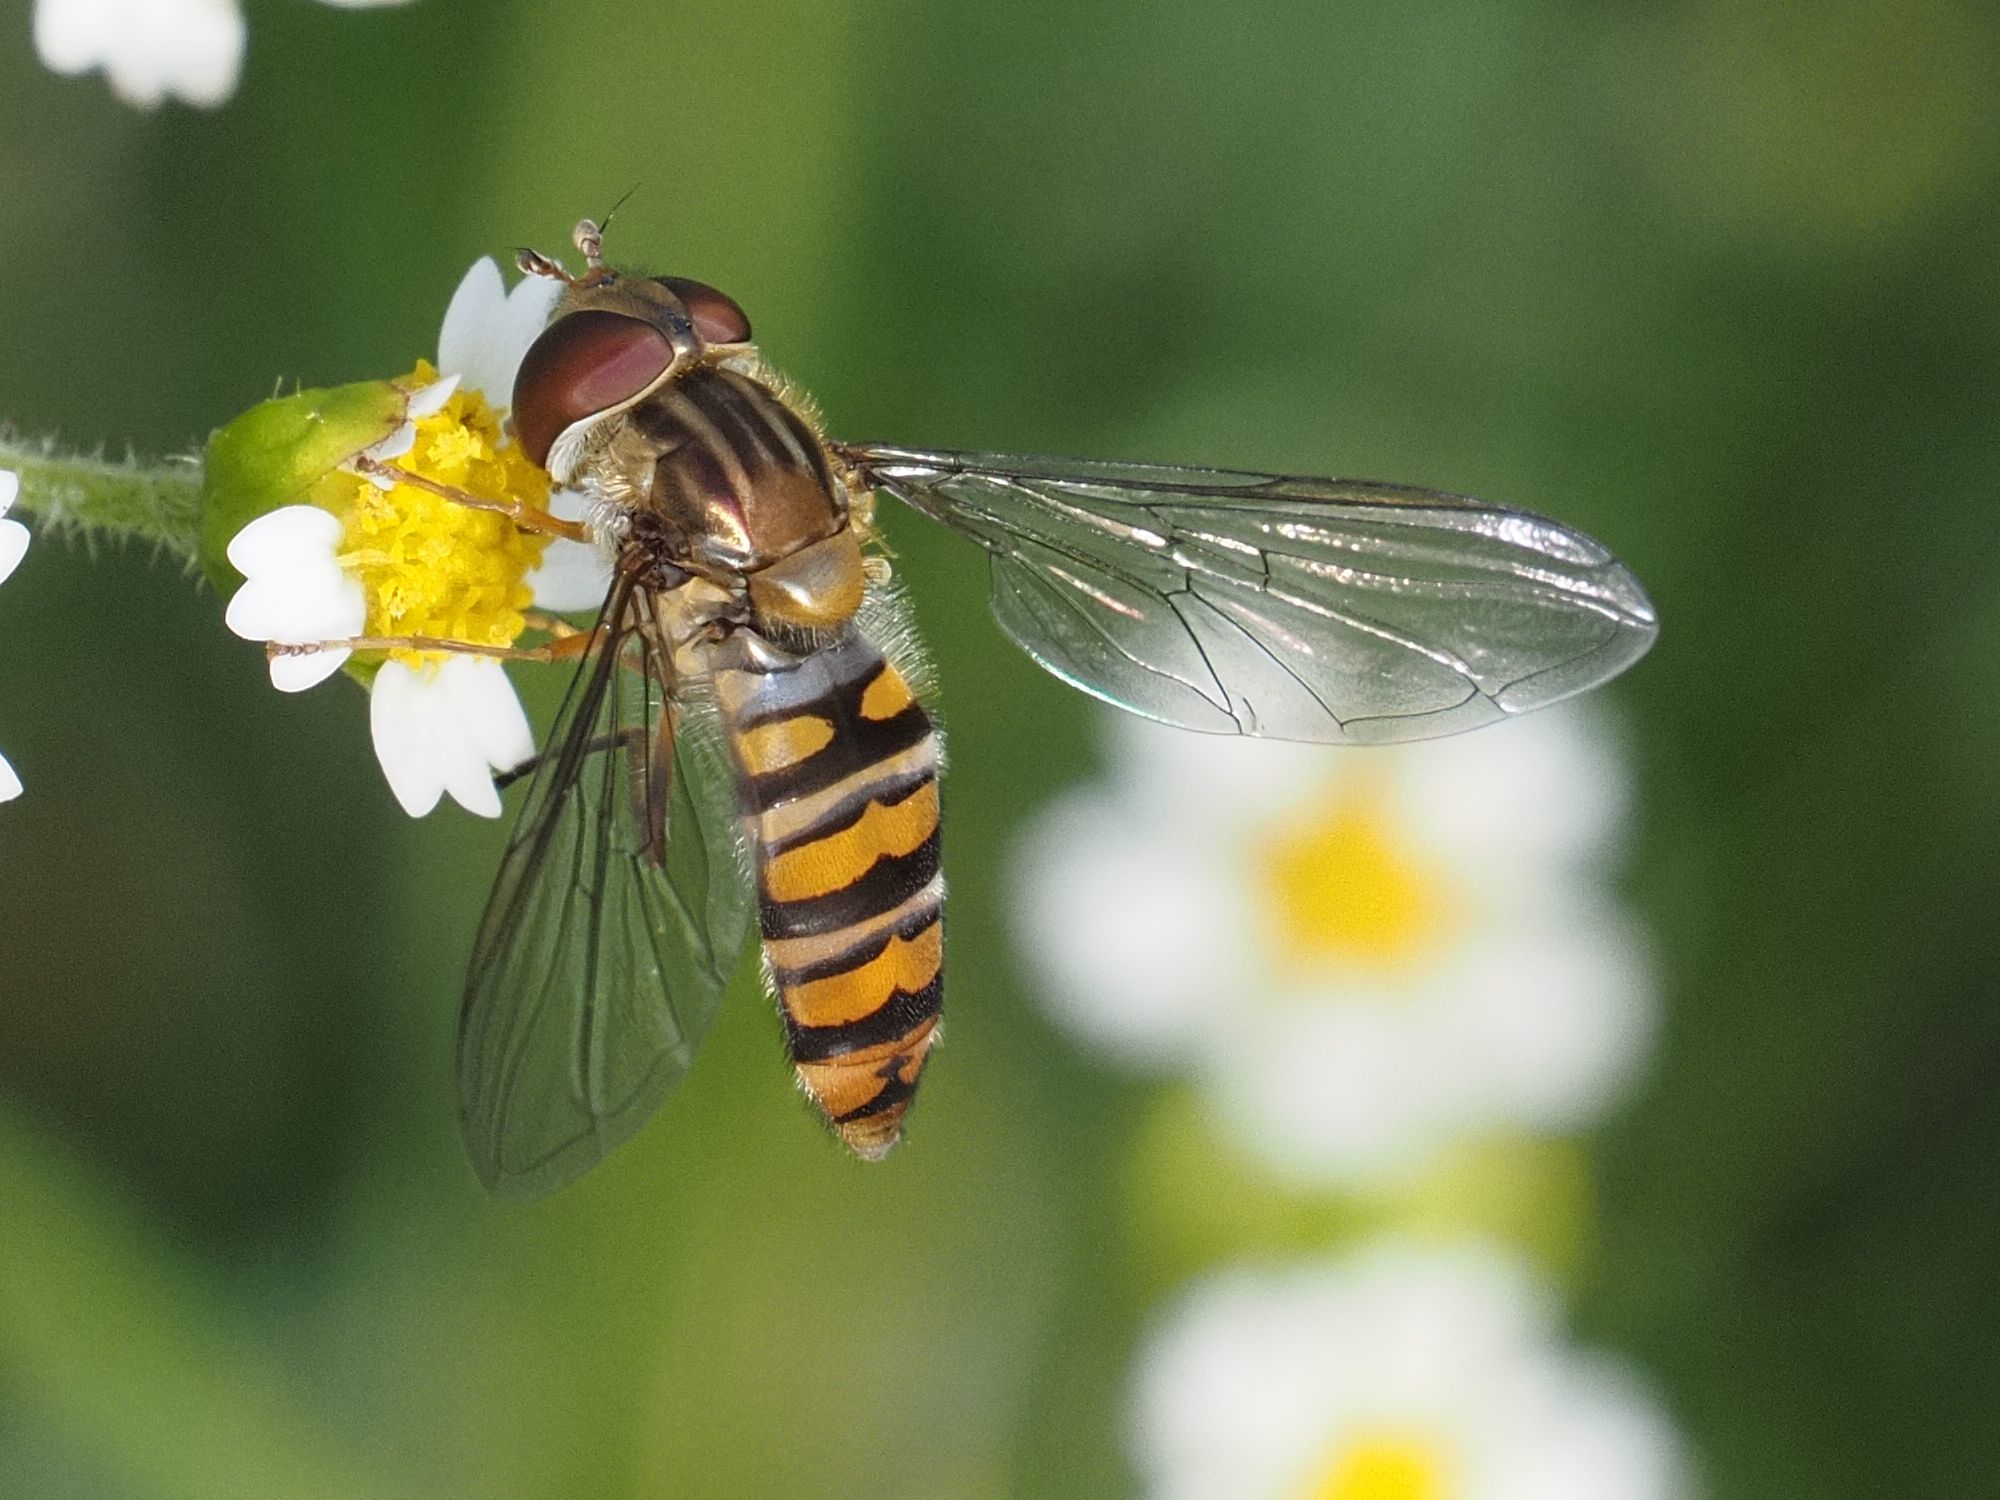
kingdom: Animalia
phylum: Arthropoda
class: Insecta
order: Diptera
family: Syrphidae
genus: Episyrphus
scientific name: Episyrphus balteatus
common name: Marmalade hoverfly
